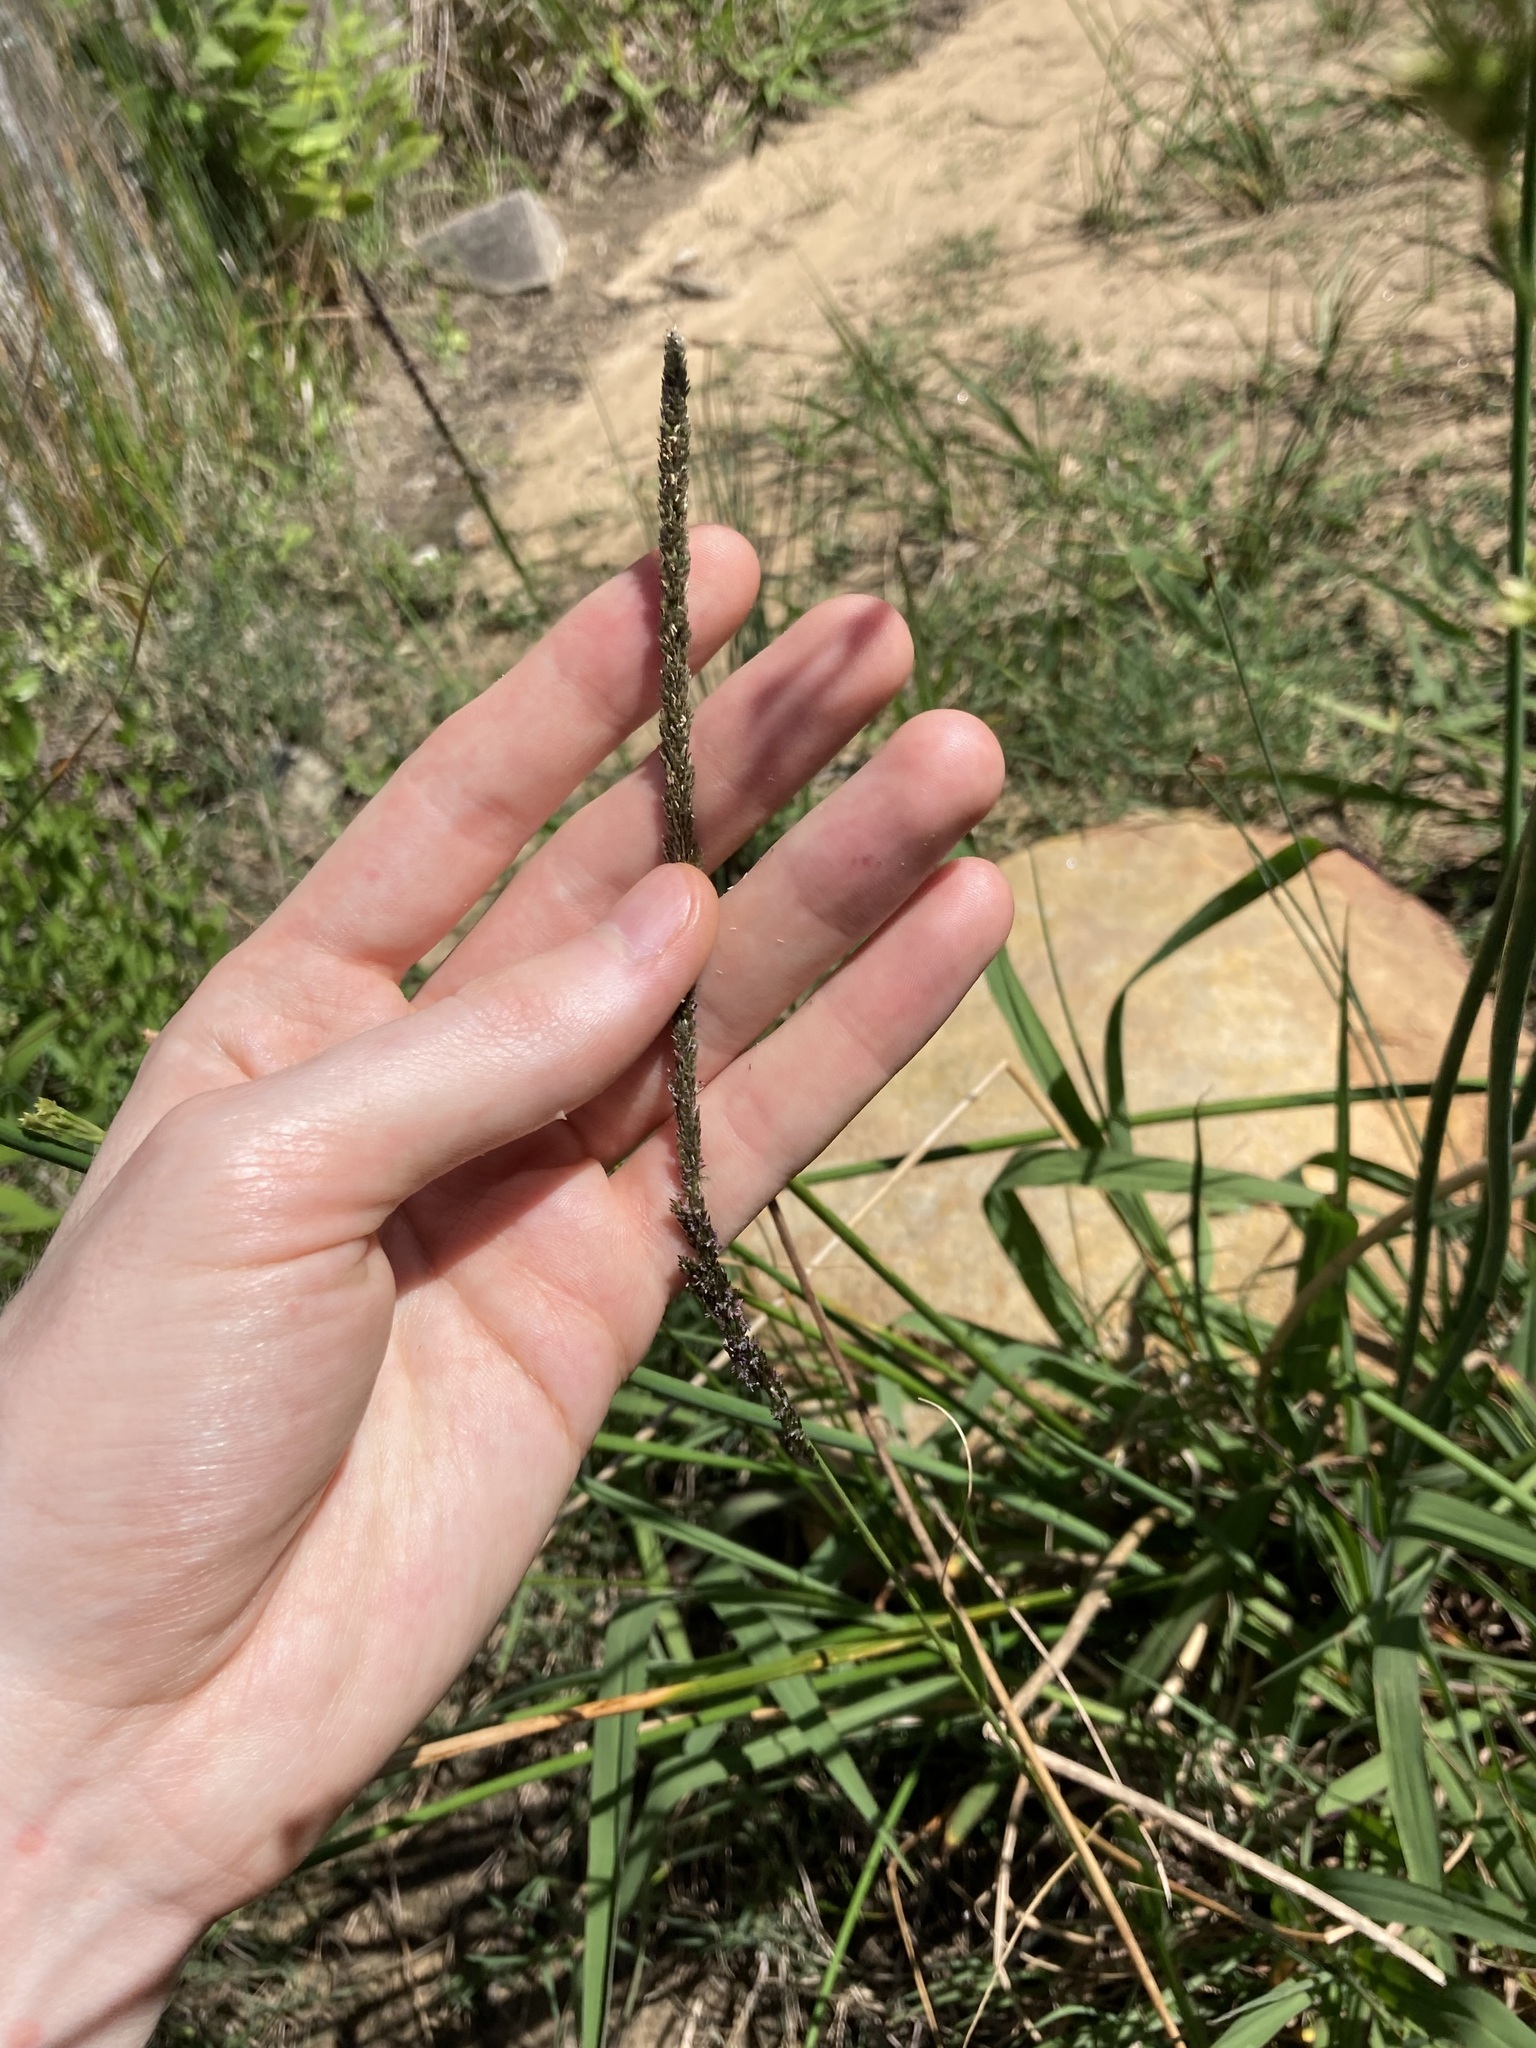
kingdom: Plantae
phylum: Tracheophyta
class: Liliopsida
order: Poales
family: Poaceae
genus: Sporobolus
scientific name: Sporobolus africanus
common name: African dropseed
